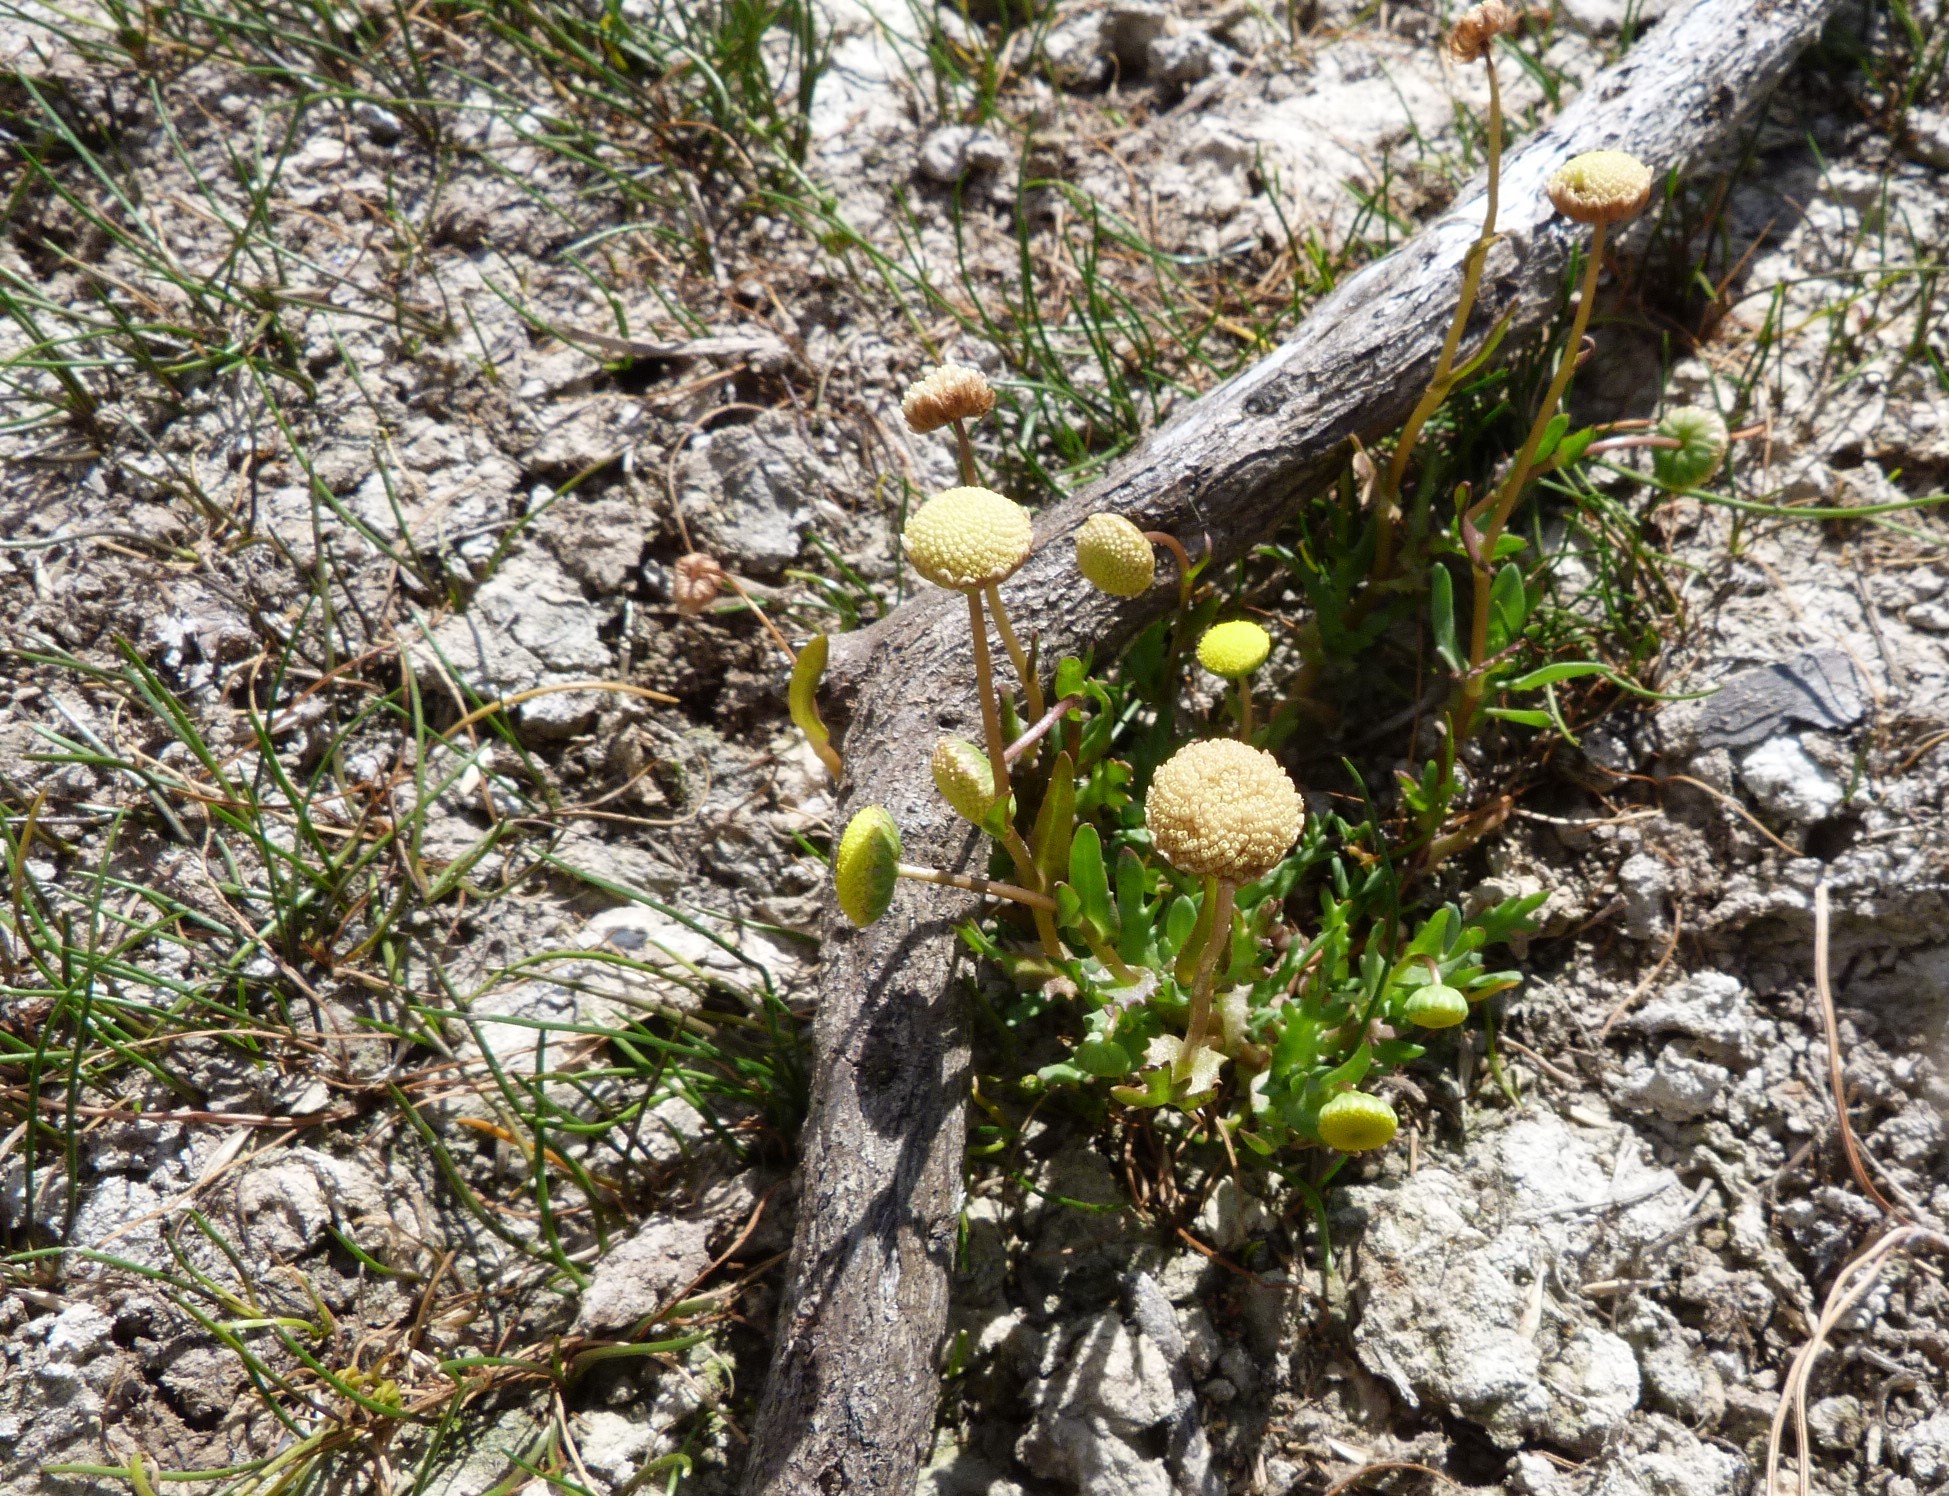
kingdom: Plantae
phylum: Tracheophyta
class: Magnoliopsida
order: Asterales
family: Asteraceae
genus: Cotula
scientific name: Cotula coronopifolia
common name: Buttonweed
